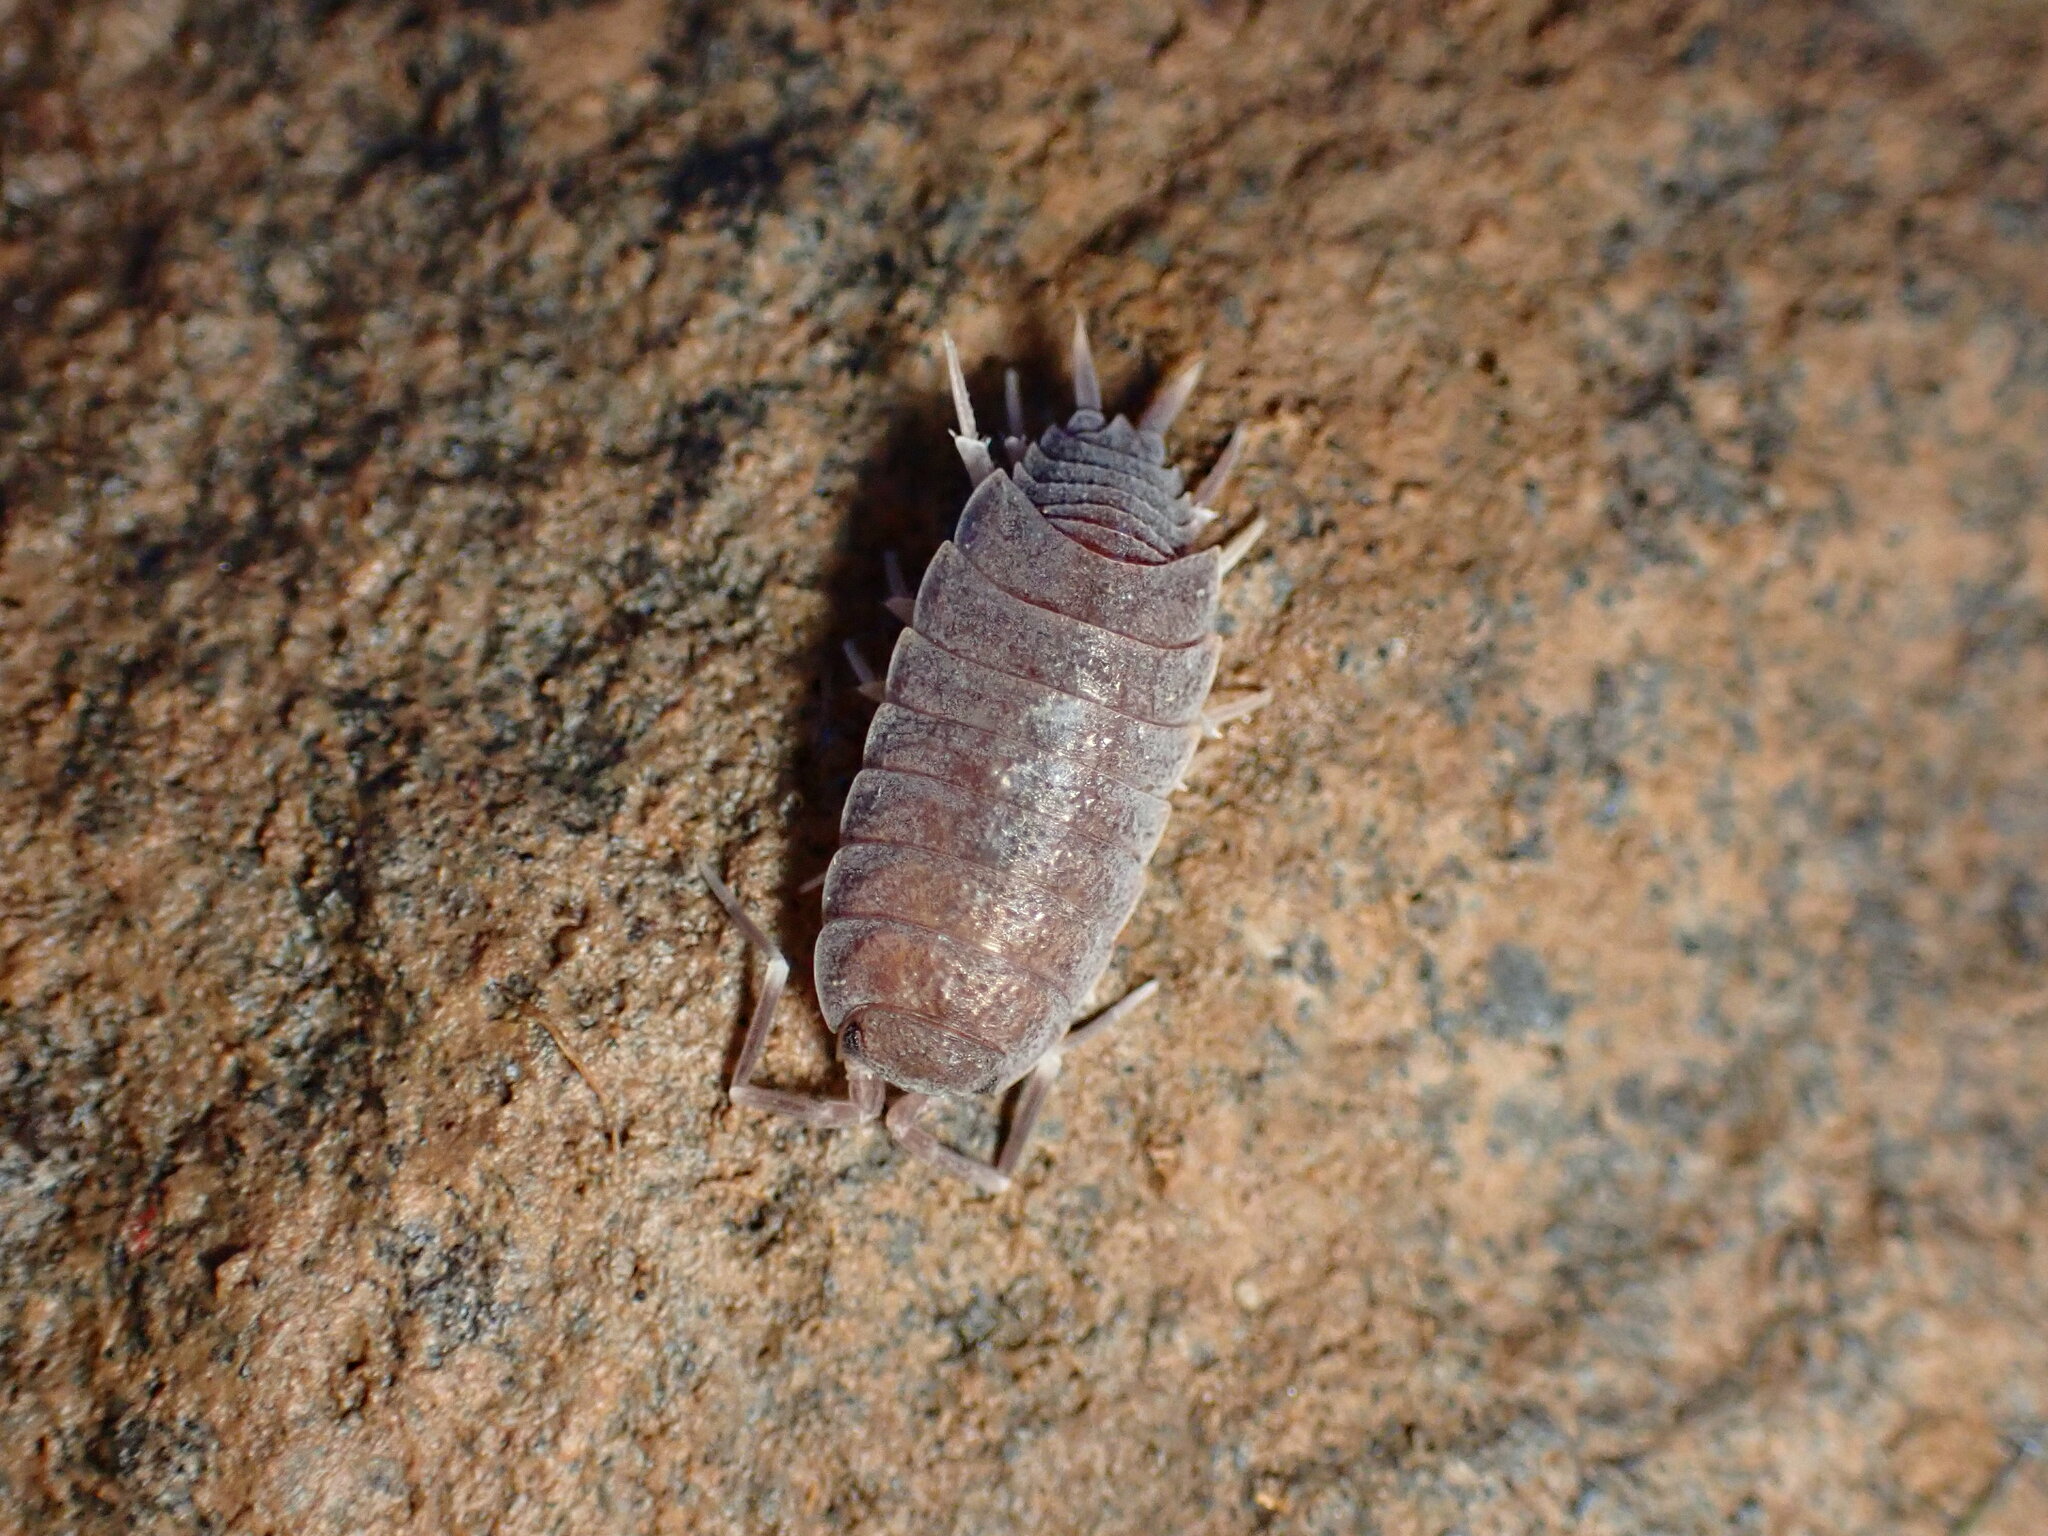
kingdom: Animalia
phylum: Arthropoda
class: Malacostraca
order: Isopoda
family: Porcellionidae
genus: Porcellionides
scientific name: Porcellionides
